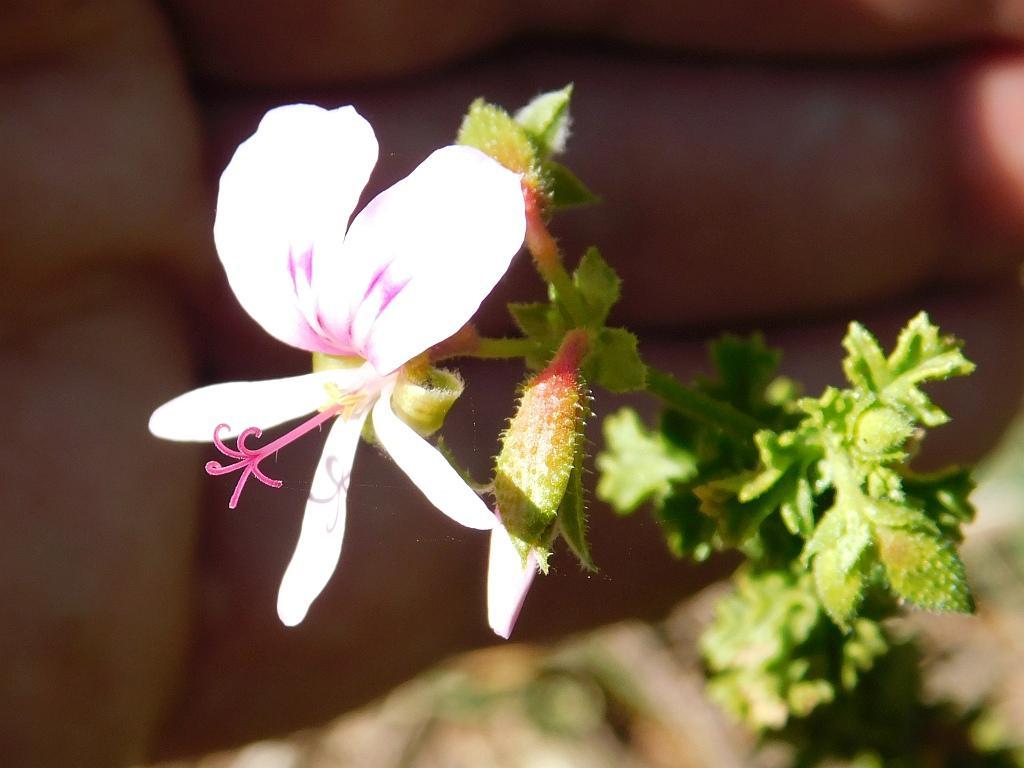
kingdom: Plantae
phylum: Tracheophyta
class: Magnoliopsida
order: Geraniales
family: Geraniaceae
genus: Pelargonium
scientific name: Pelargonium hermaniifolium
